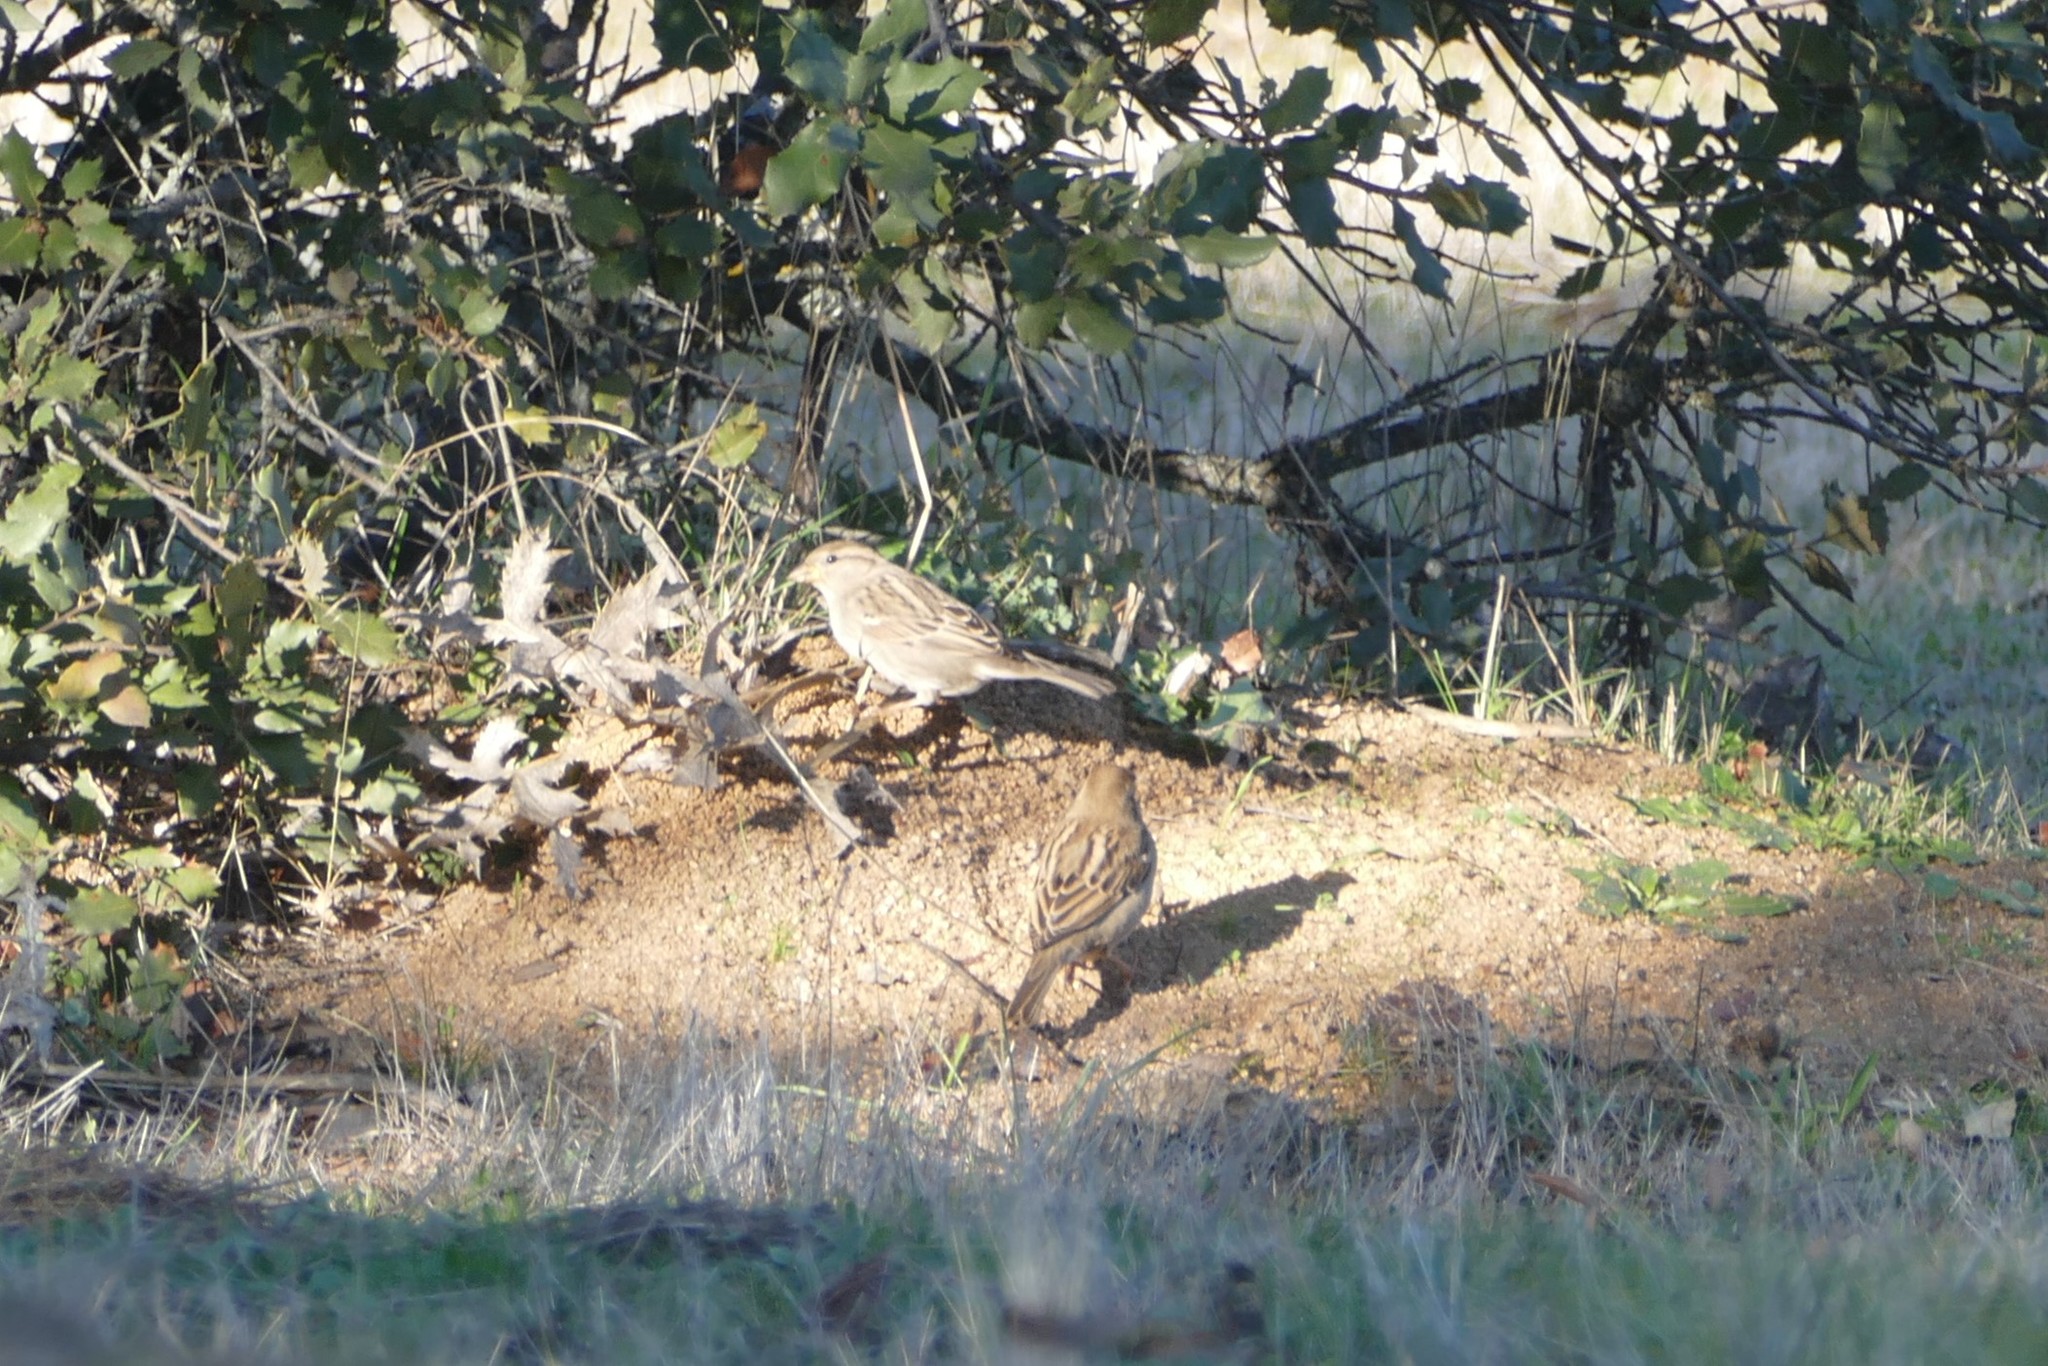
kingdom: Animalia
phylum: Chordata
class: Aves
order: Passeriformes
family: Passeridae
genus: Passer
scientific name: Passer domesticus
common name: House sparrow
